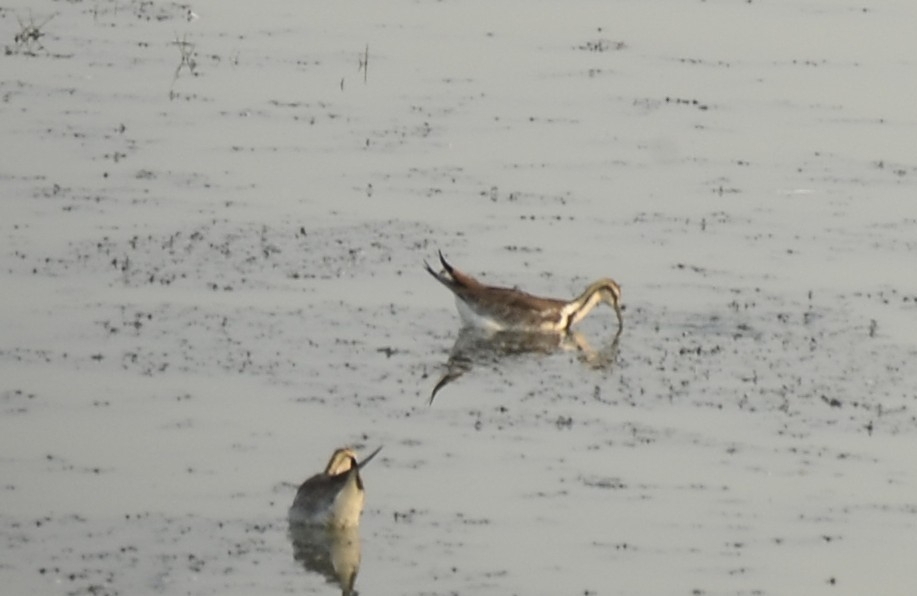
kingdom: Animalia
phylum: Chordata
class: Aves
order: Charadriiformes
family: Jacanidae
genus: Hydrophasianus
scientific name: Hydrophasianus chirurgus
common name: Pheasant-tailed jacana
